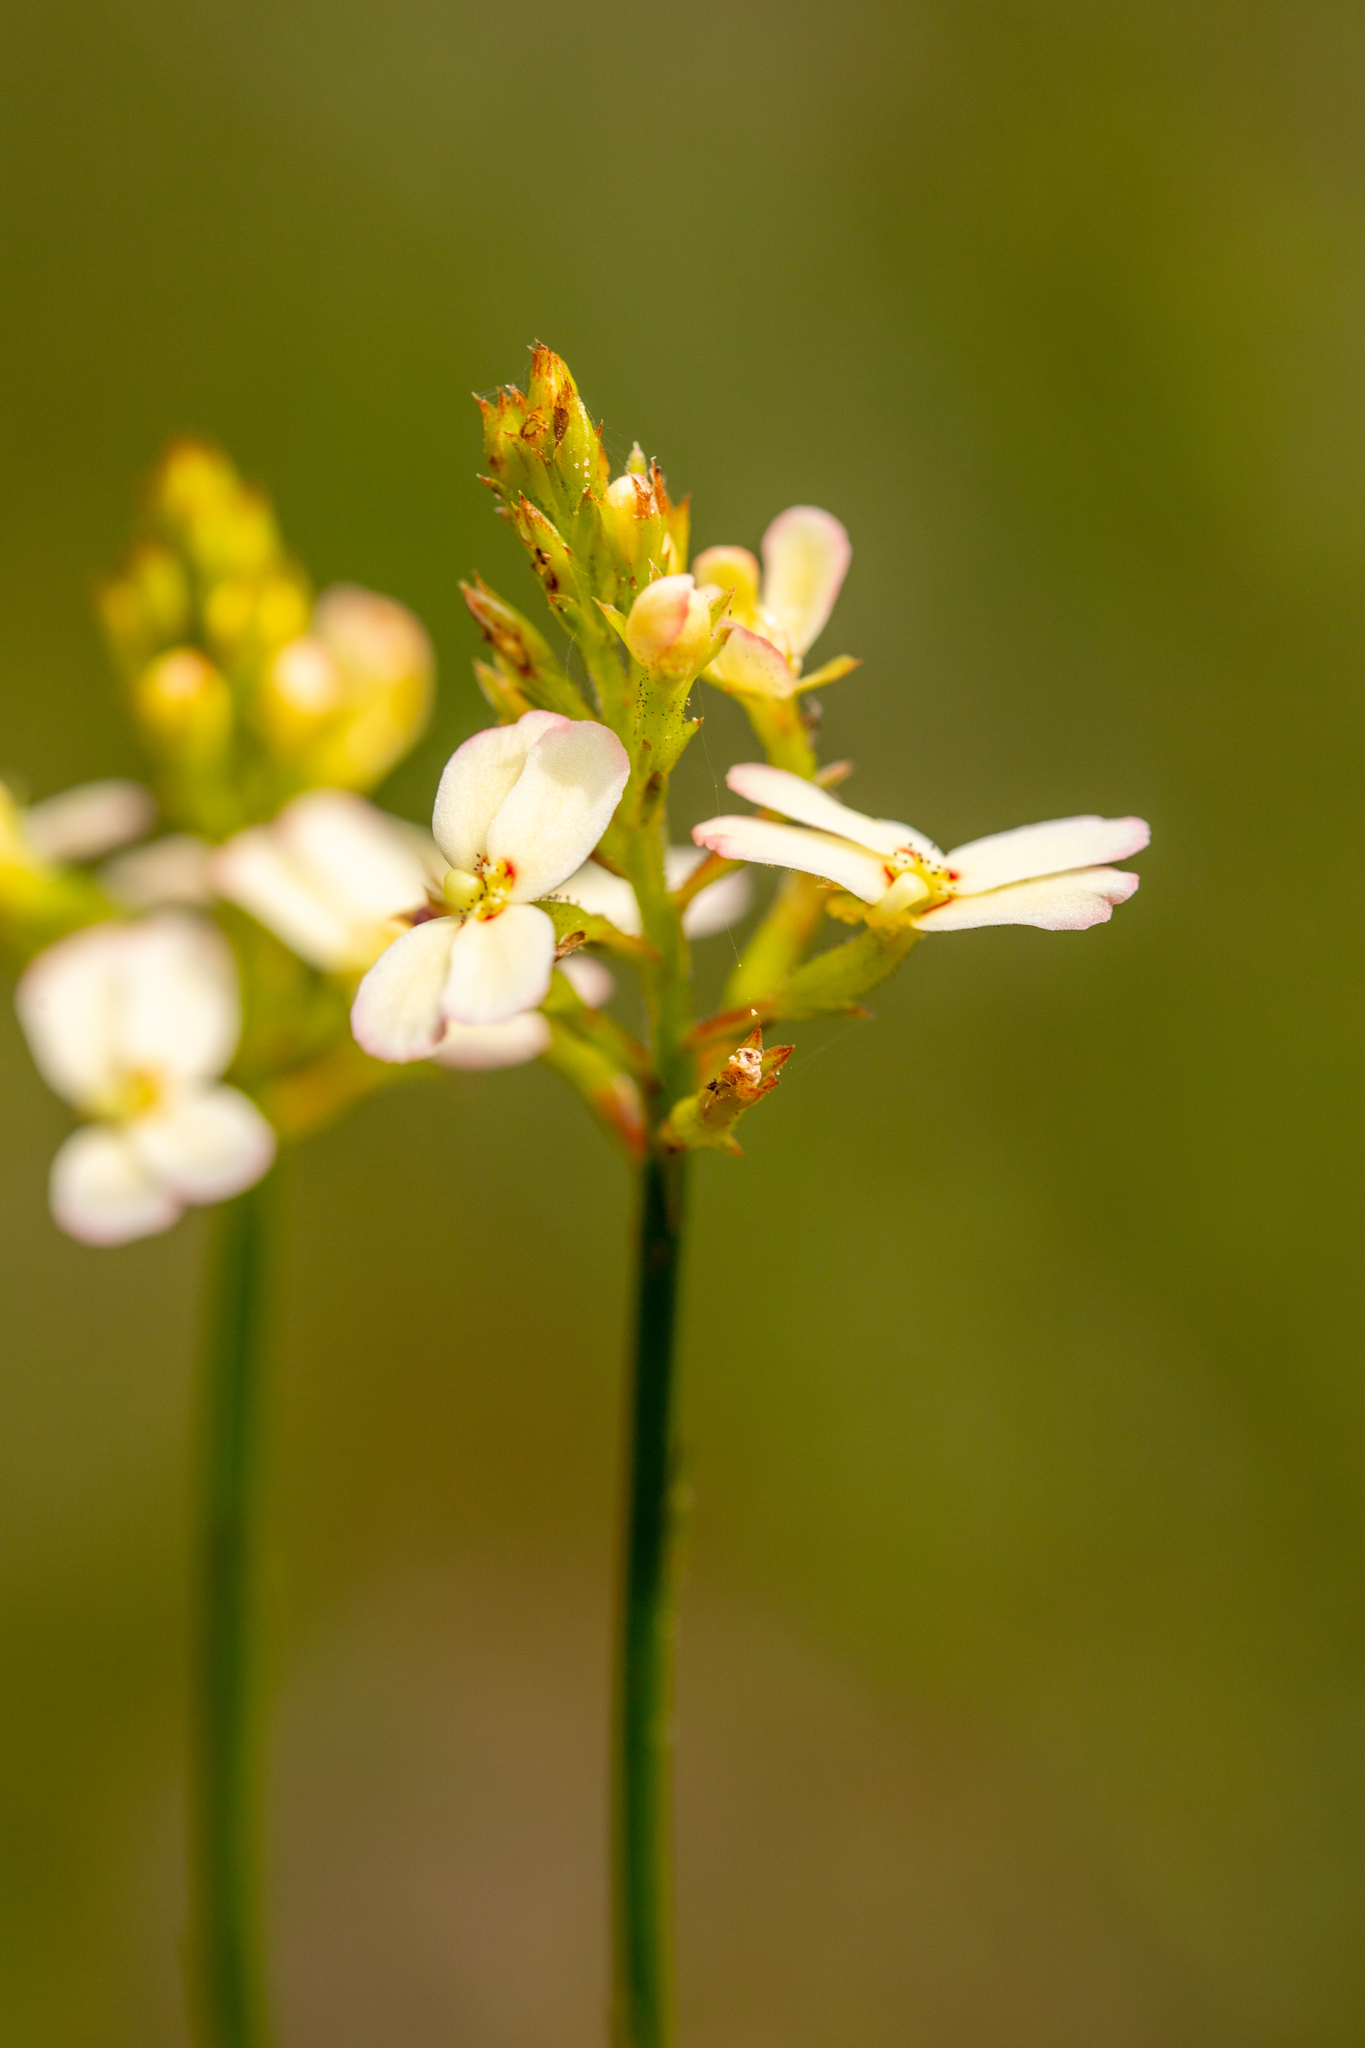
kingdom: Plantae
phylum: Tracheophyta
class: Magnoliopsida
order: Asterales
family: Stylidiaceae
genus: Stylidium
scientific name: Stylidium junceum
